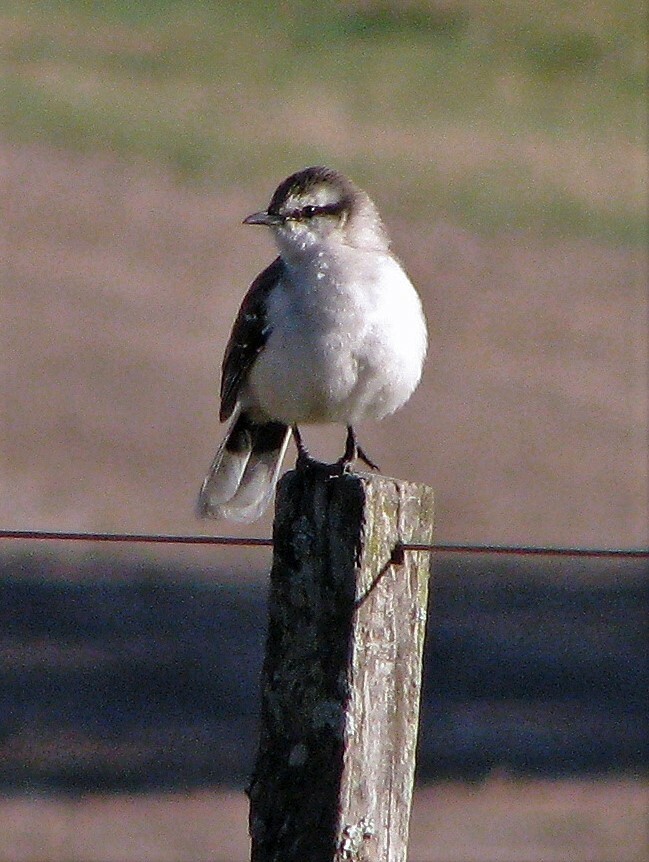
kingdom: Animalia
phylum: Chordata
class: Aves
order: Passeriformes
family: Mimidae
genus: Mimus
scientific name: Mimus saturninus
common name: Chalk-browed mockingbird
